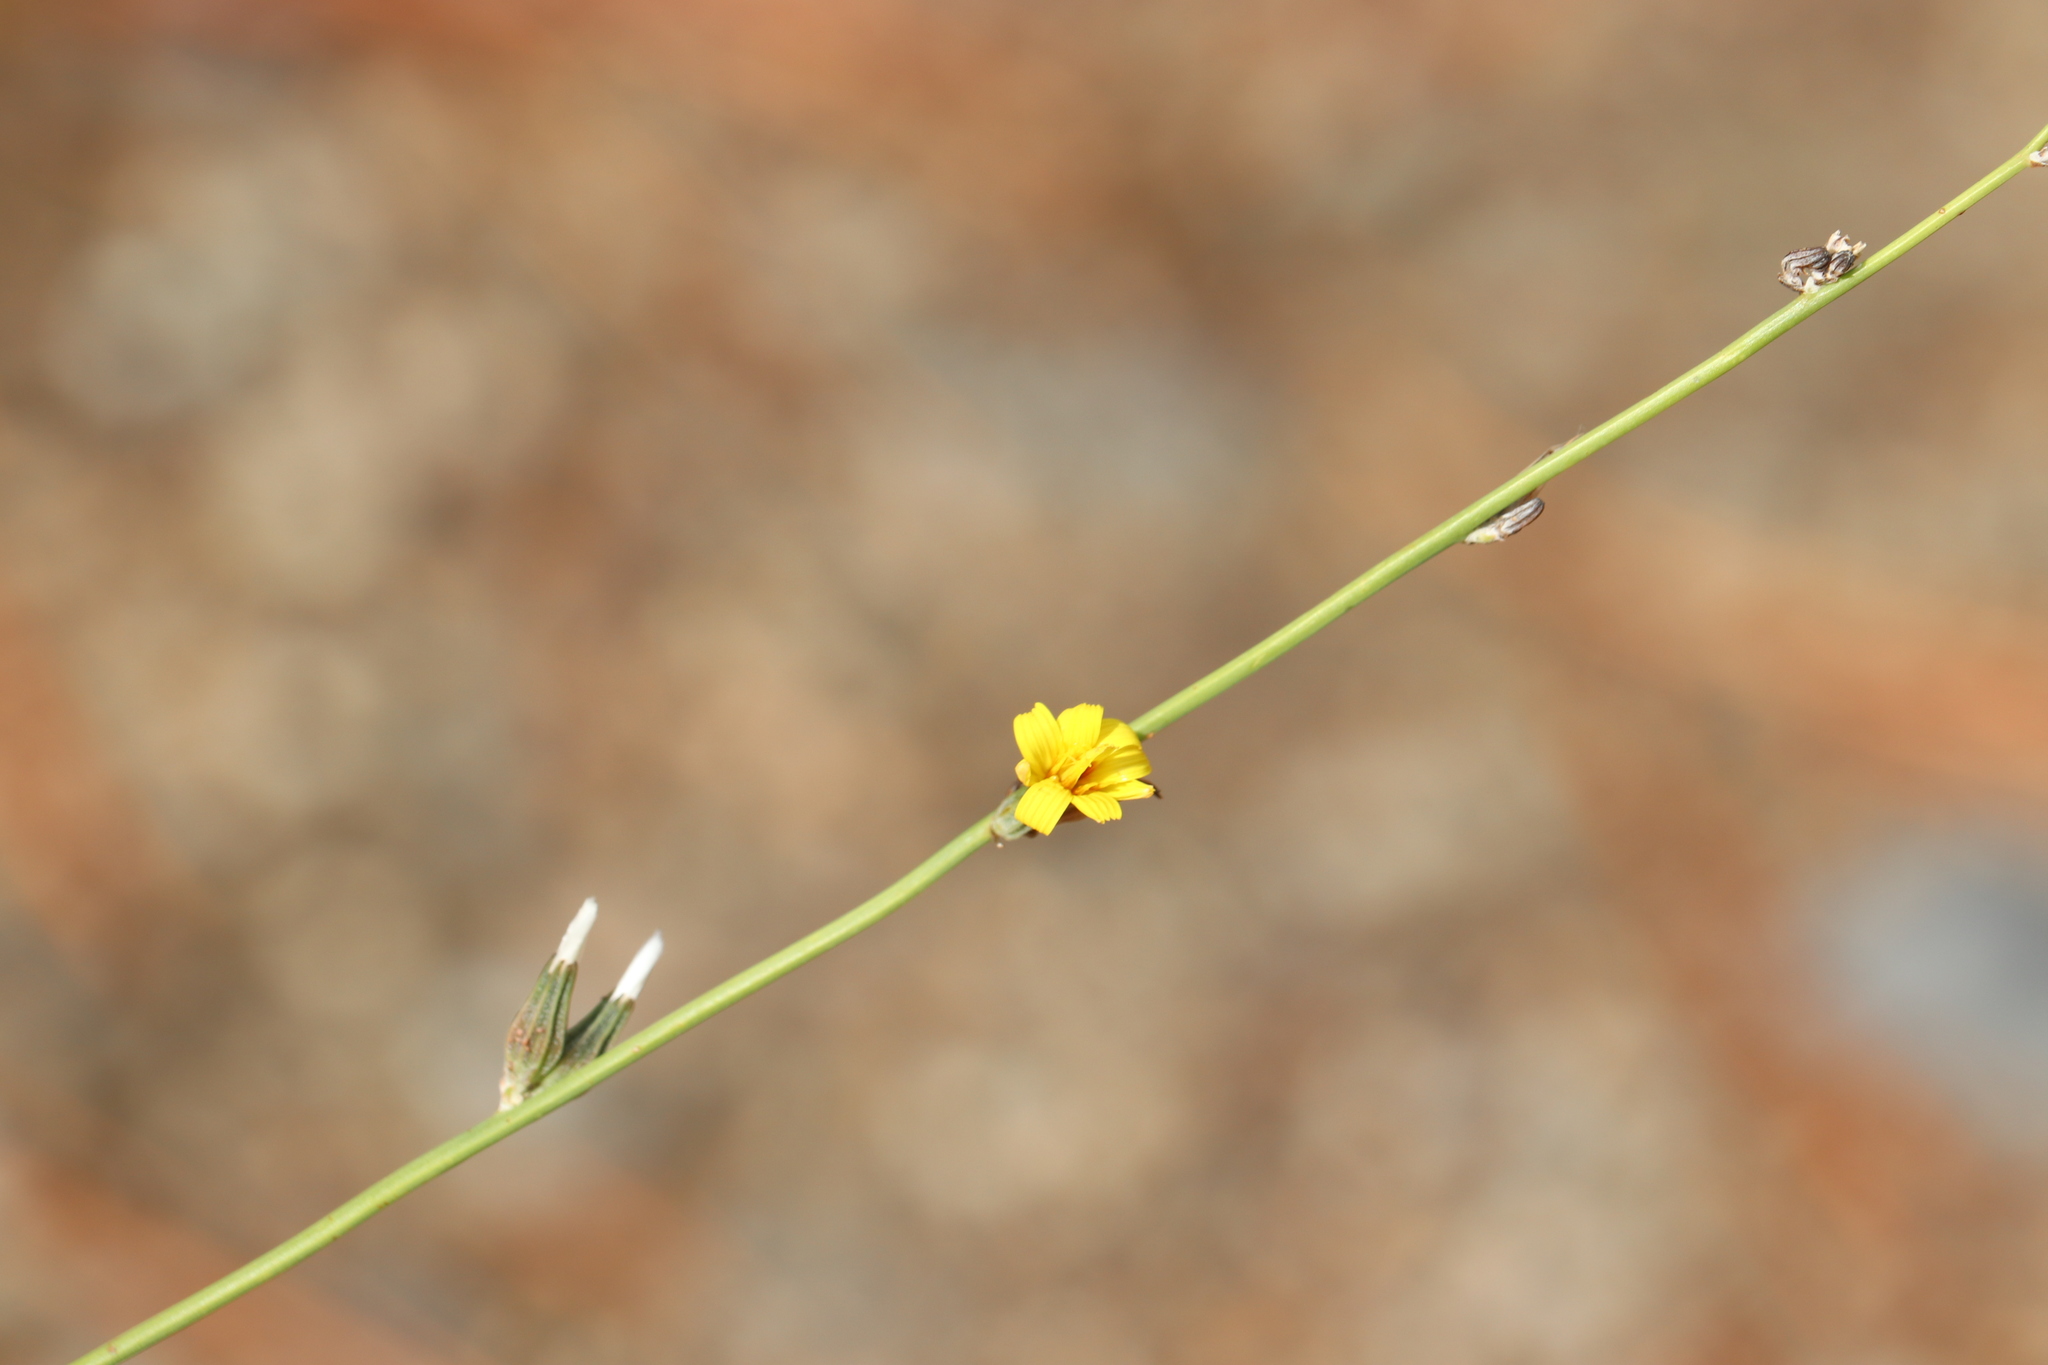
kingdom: Plantae
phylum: Tracheophyta
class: Magnoliopsida
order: Asterales
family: Asteraceae
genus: Chondrilla
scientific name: Chondrilla juncea
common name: Skeleton weed
